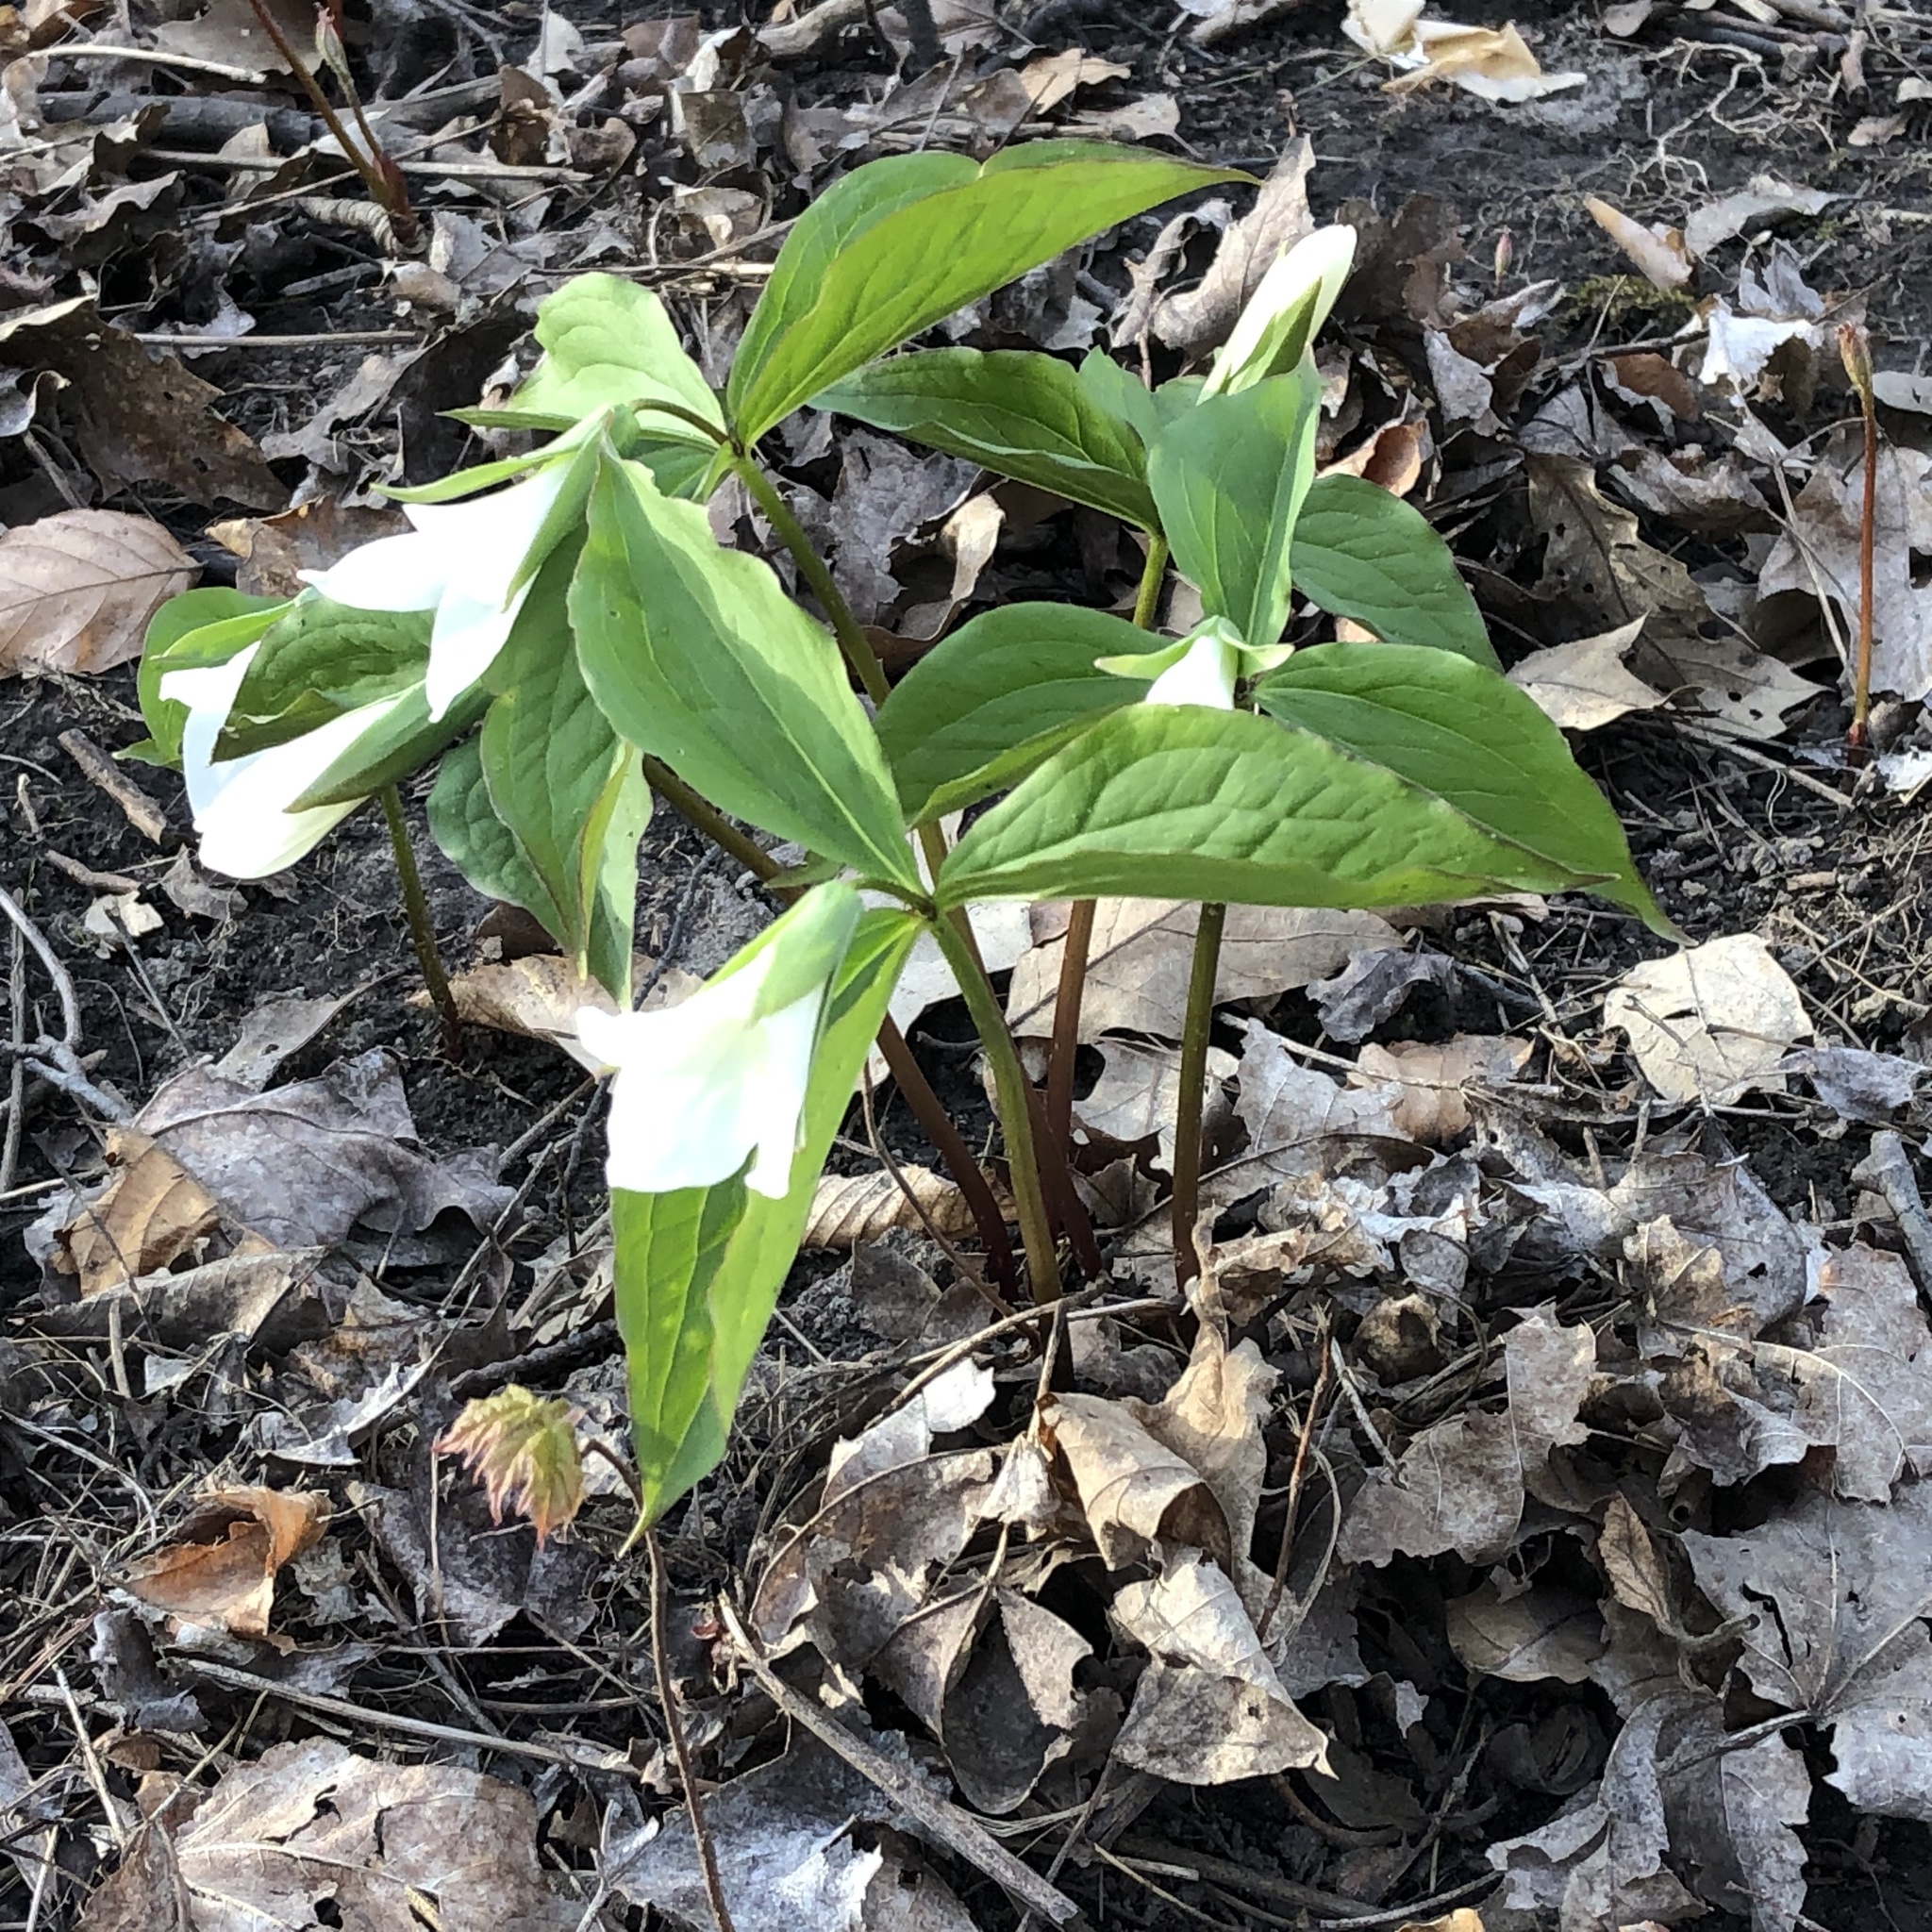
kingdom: Plantae
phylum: Tracheophyta
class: Liliopsida
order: Liliales
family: Melanthiaceae
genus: Trillium
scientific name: Trillium grandiflorum
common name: Great white trillium
